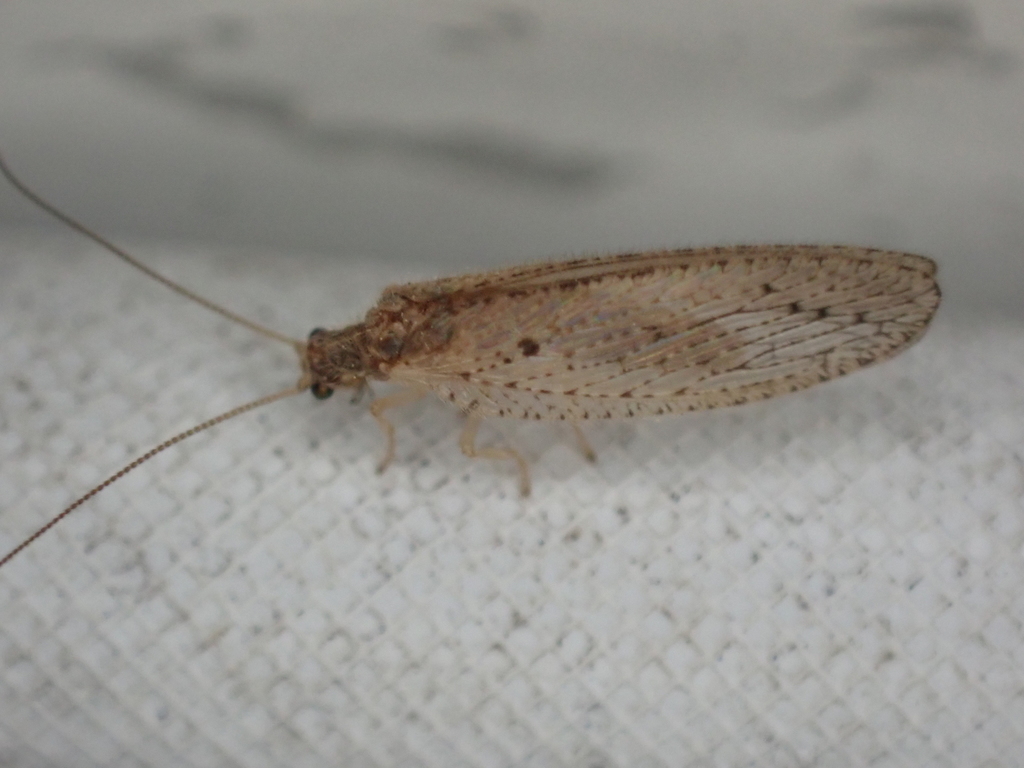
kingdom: Animalia
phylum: Arthropoda
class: Insecta
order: Neuroptera
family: Hemerobiidae
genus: Micromus
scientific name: Micromus subanticus
